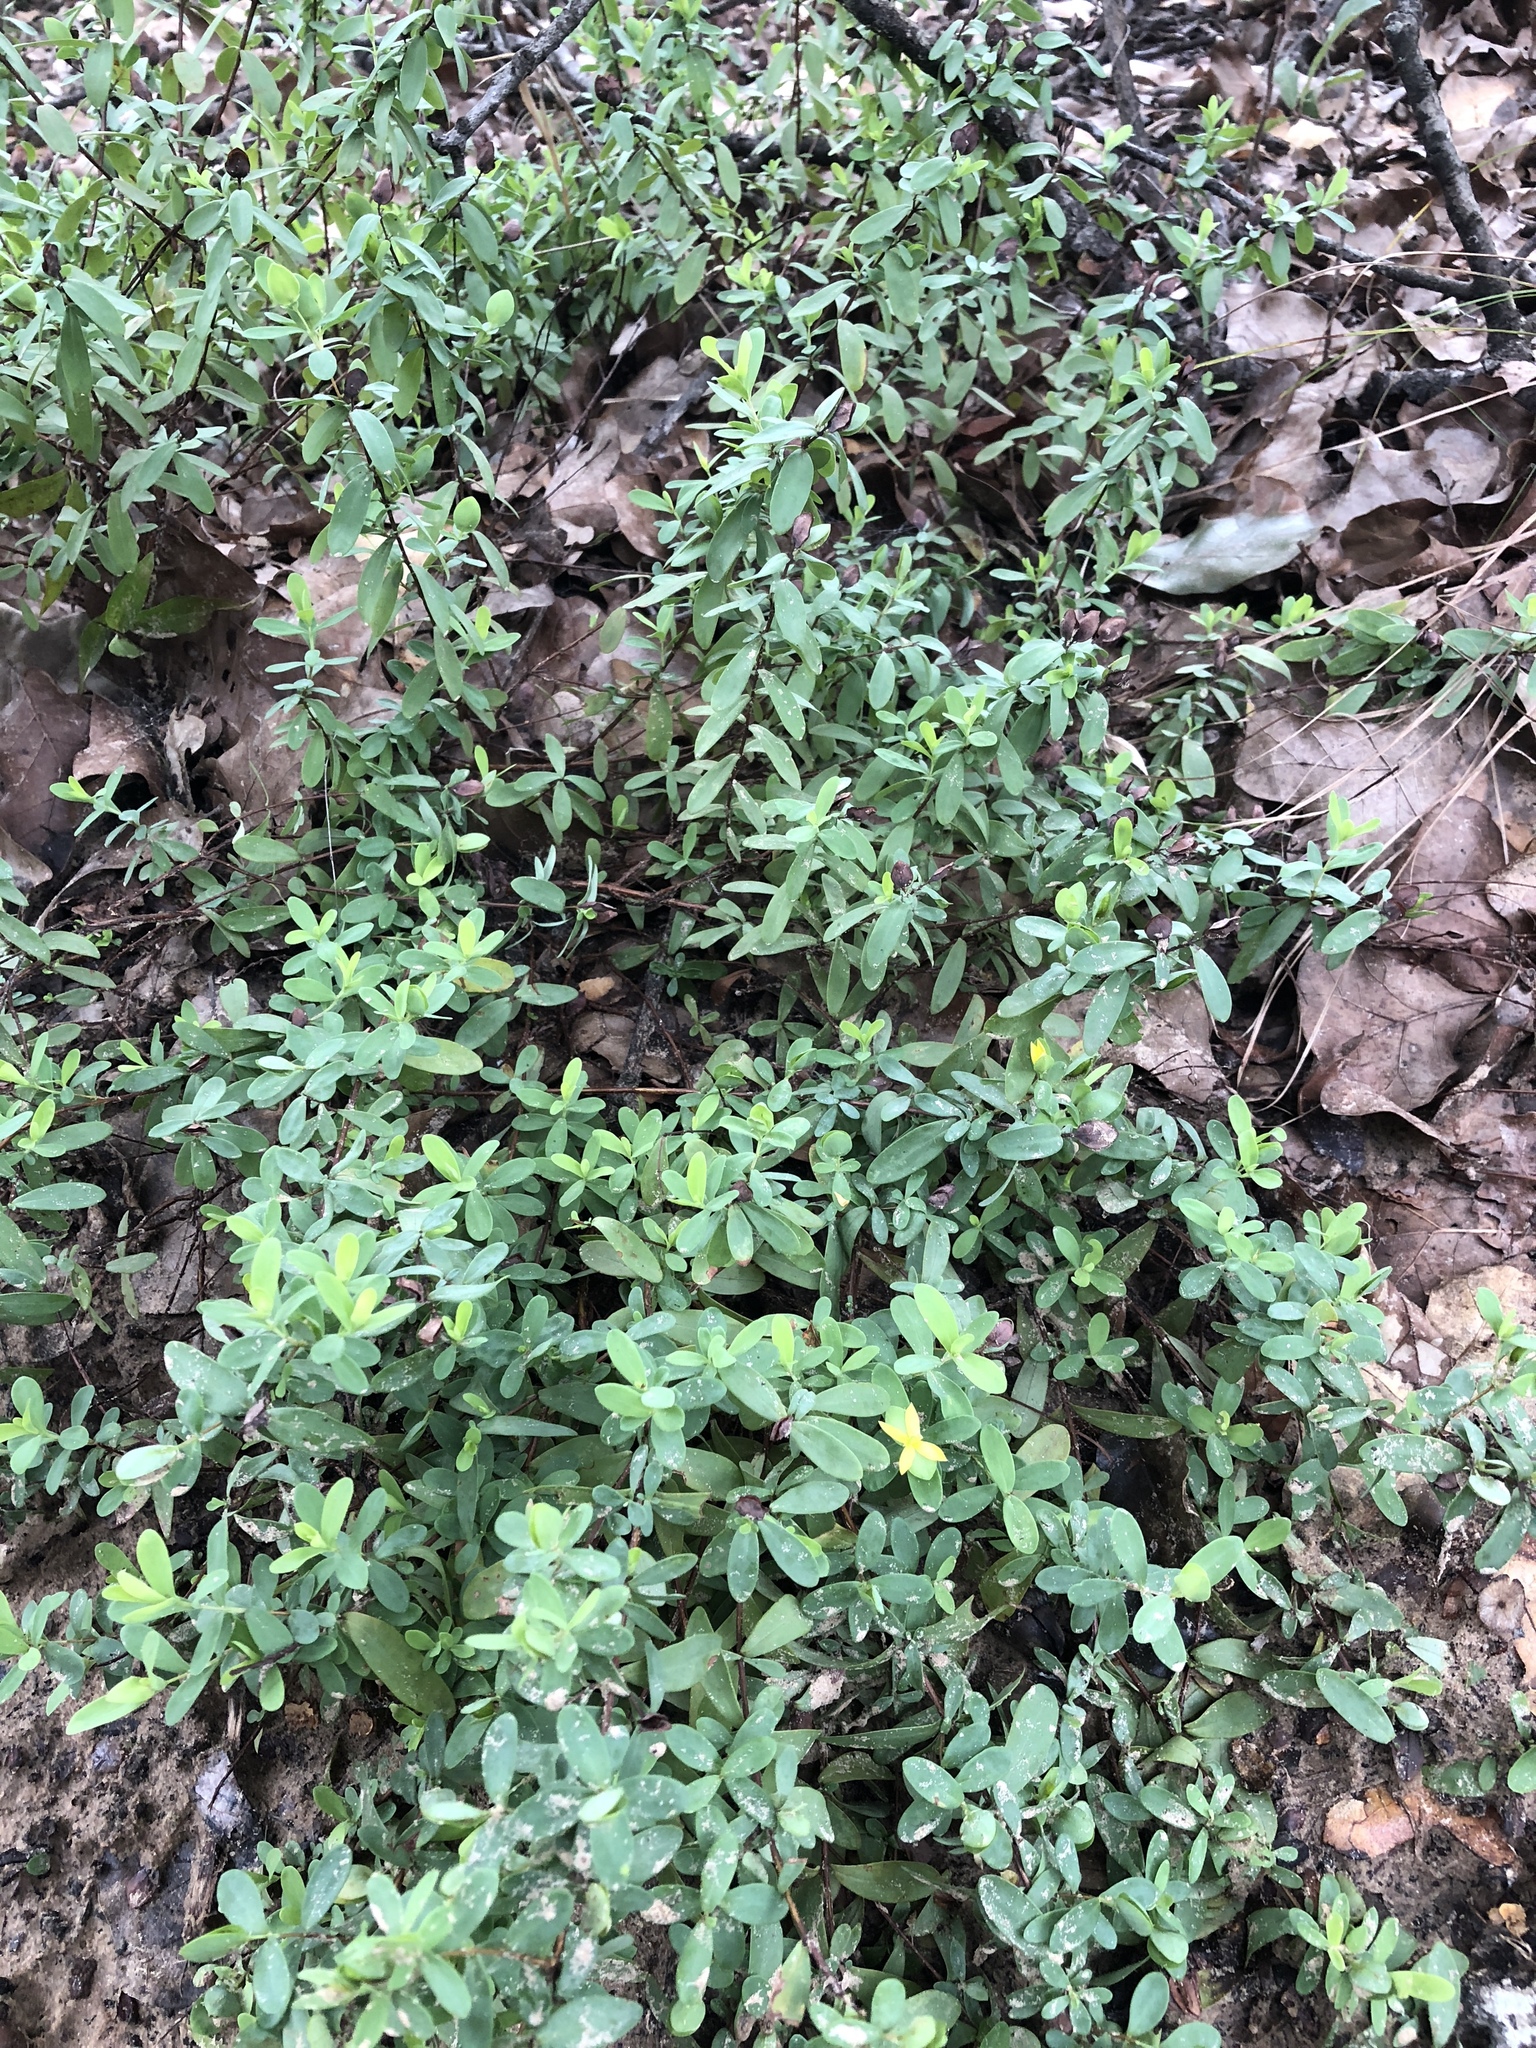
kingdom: Plantae
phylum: Tracheophyta
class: Magnoliopsida
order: Malpighiales
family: Hypericaceae
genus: Hypericum
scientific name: Hypericum hypericoides
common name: St. andrew's cross
